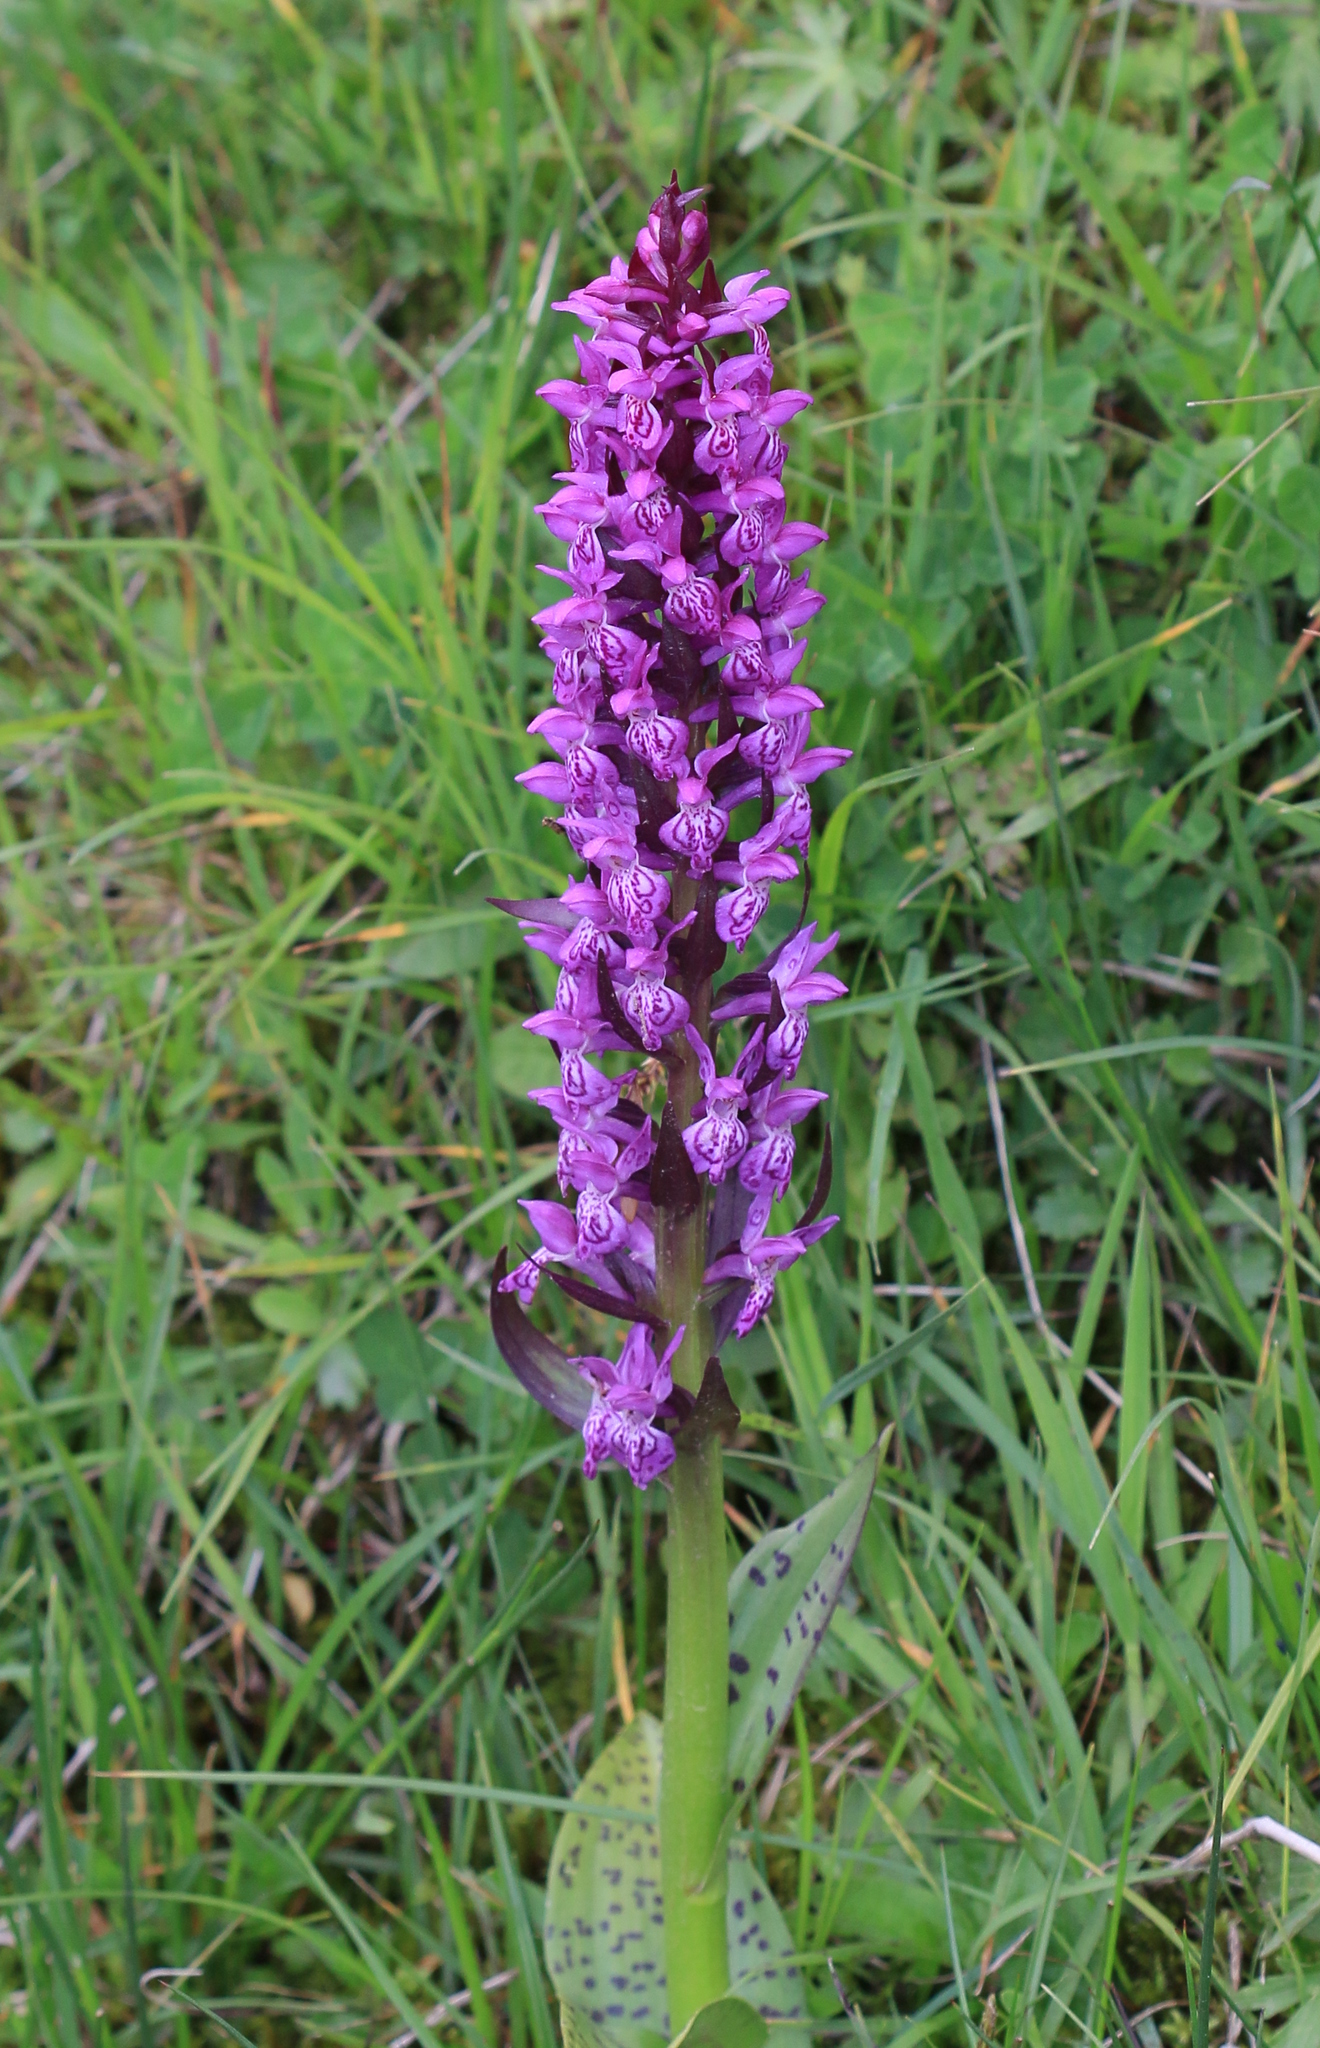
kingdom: Plantae
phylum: Tracheophyta
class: Liliopsida
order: Asparagales
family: Orchidaceae
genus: Dactylorhiza
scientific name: Dactylorhiza majalis
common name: Marsh orchid
